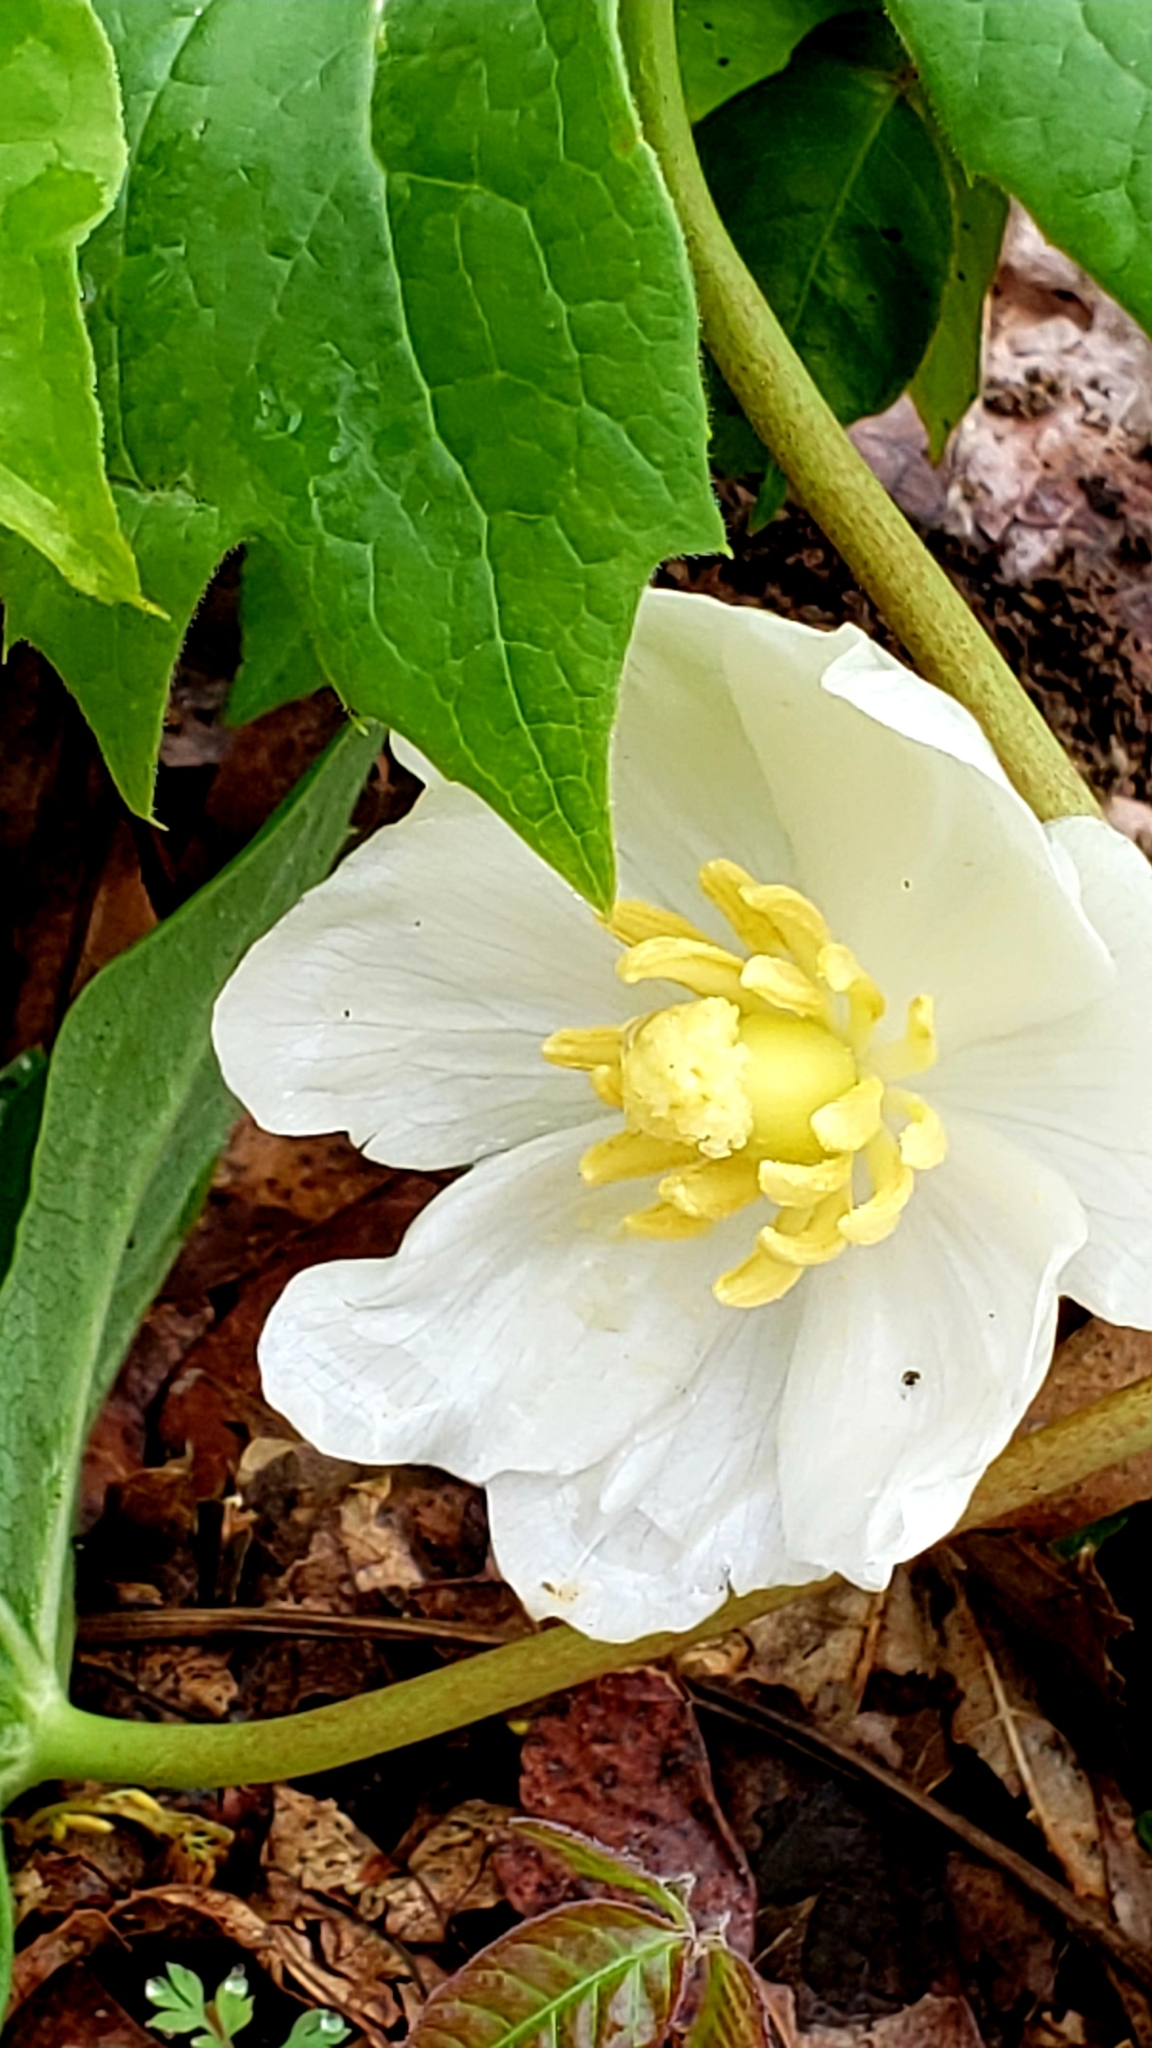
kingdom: Plantae
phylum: Tracheophyta
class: Magnoliopsida
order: Ranunculales
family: Berberidaceae
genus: Podophyllum
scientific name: Podophyllum peltatum
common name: Wild mandrake
